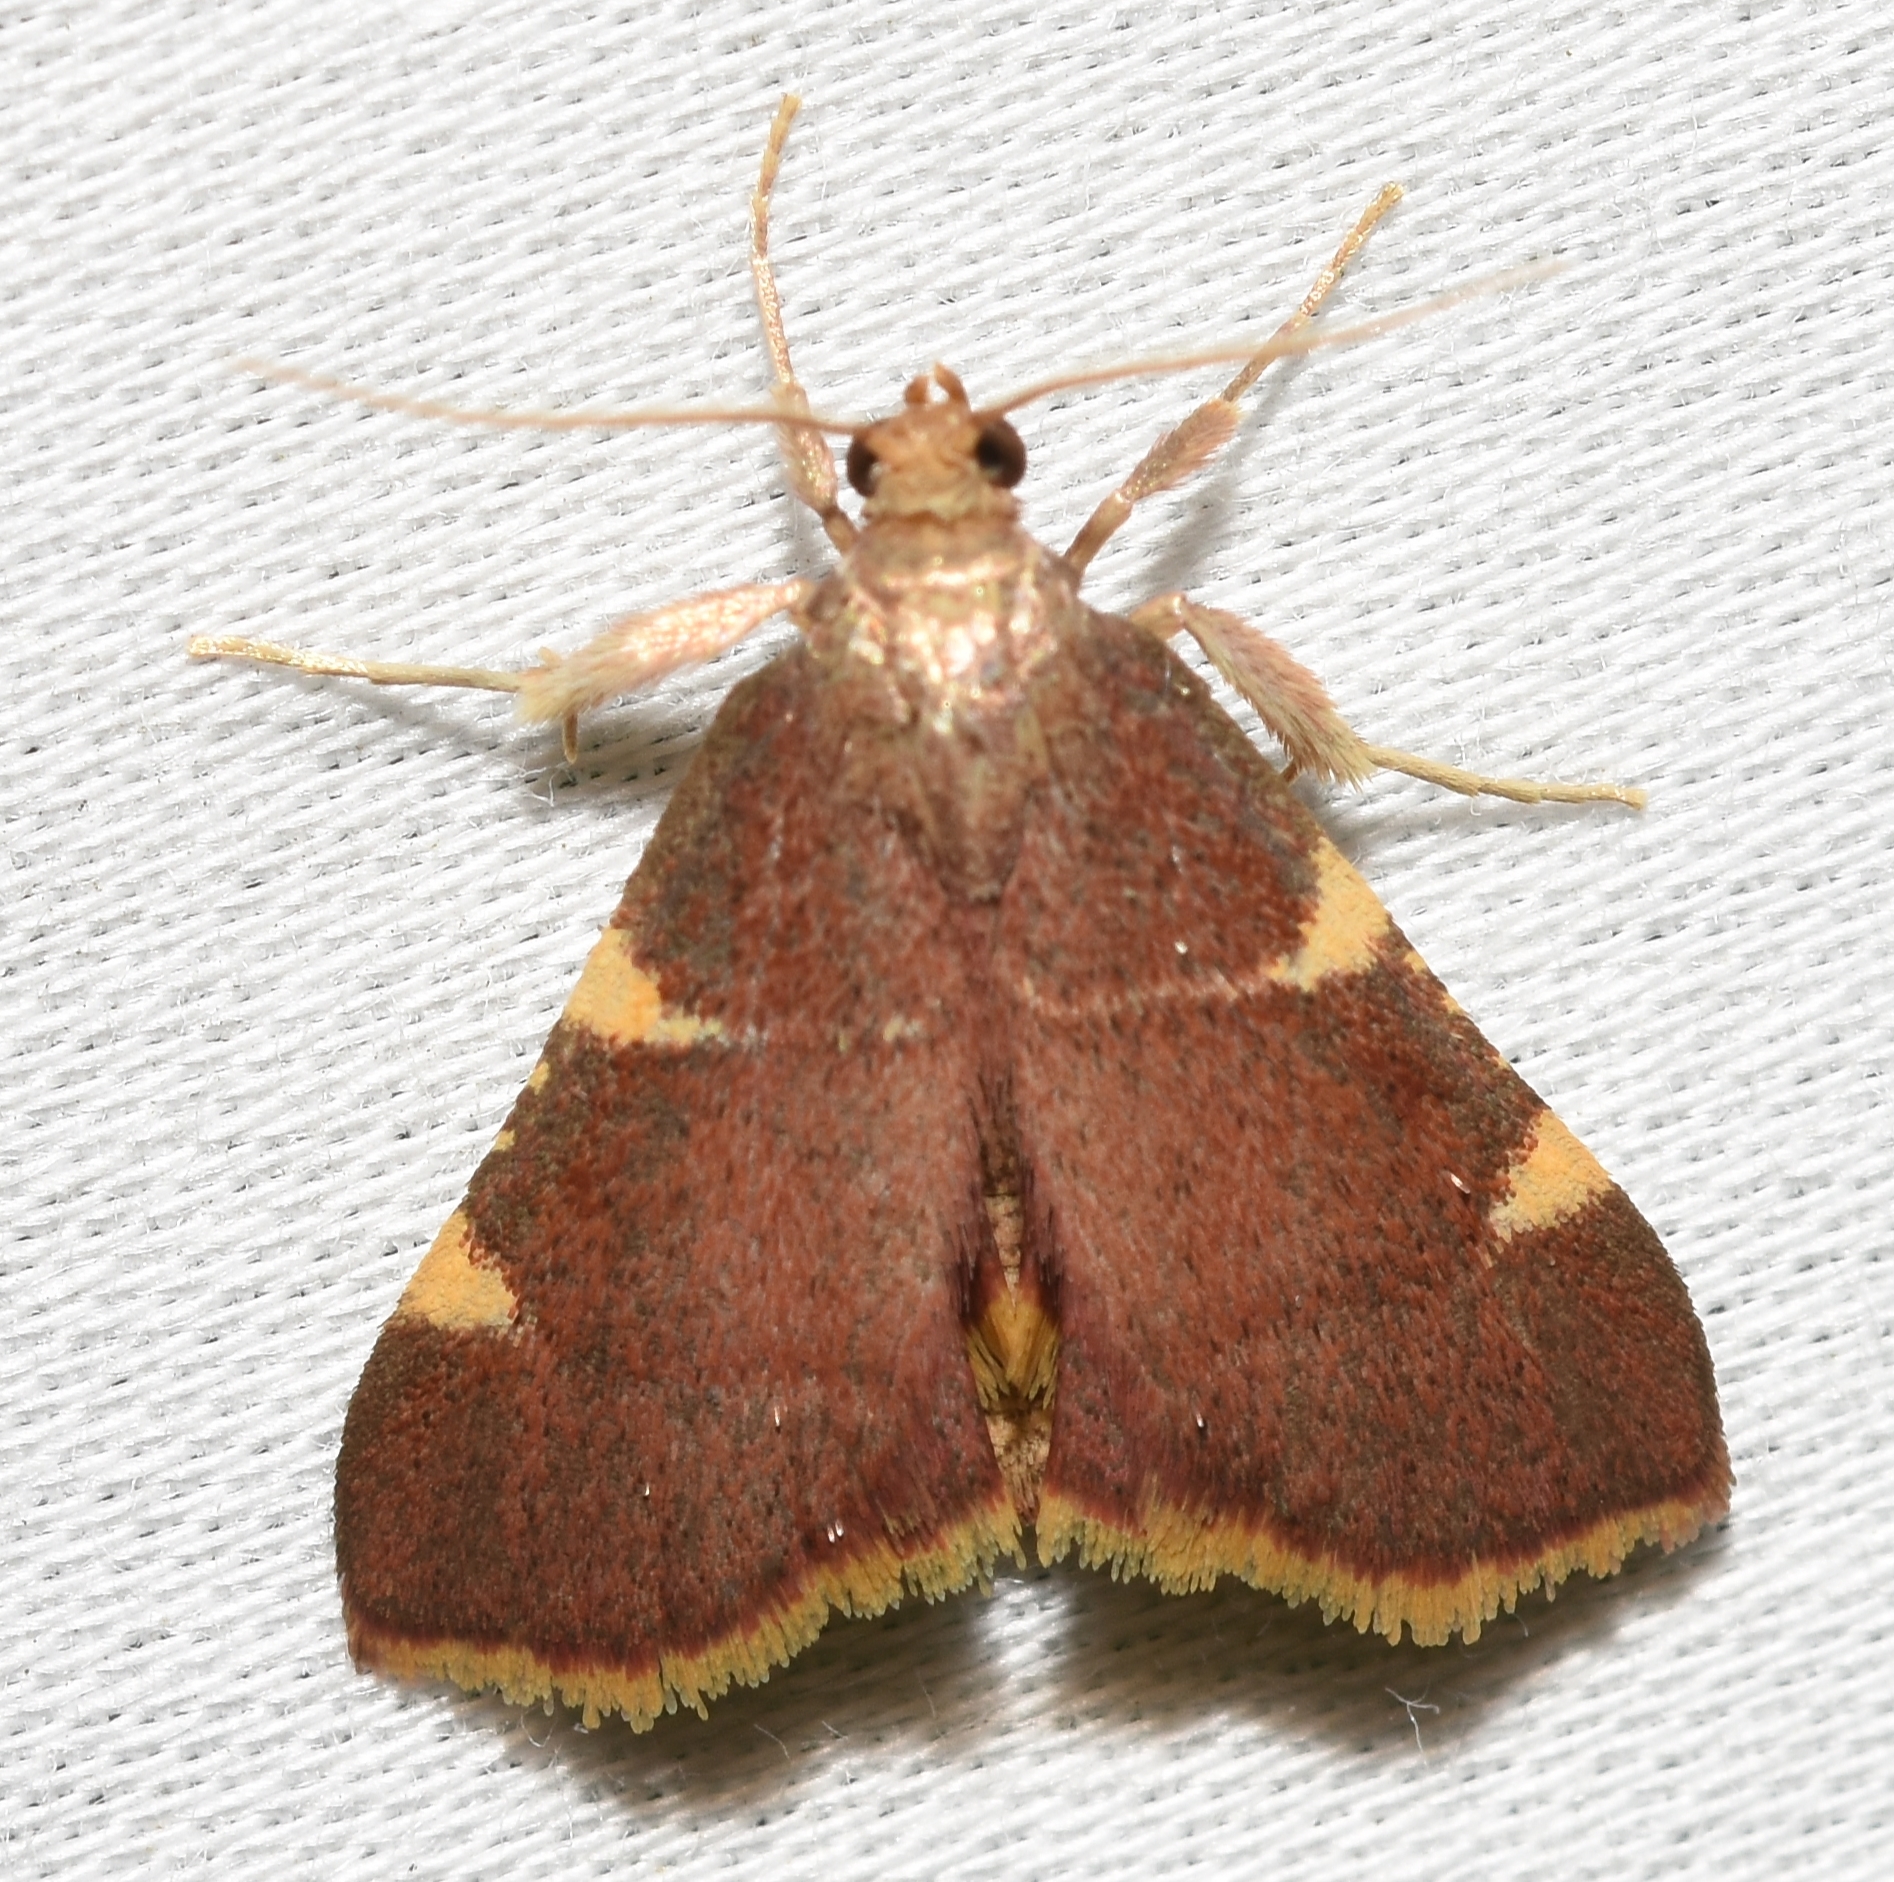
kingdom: Animalia
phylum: Arthropoda
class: Insecta
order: Lepidoptera
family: Pyralidae
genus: Hypsopygia
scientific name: Hypsopygia olinalis
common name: Yellow-fringed dolichomia moth
